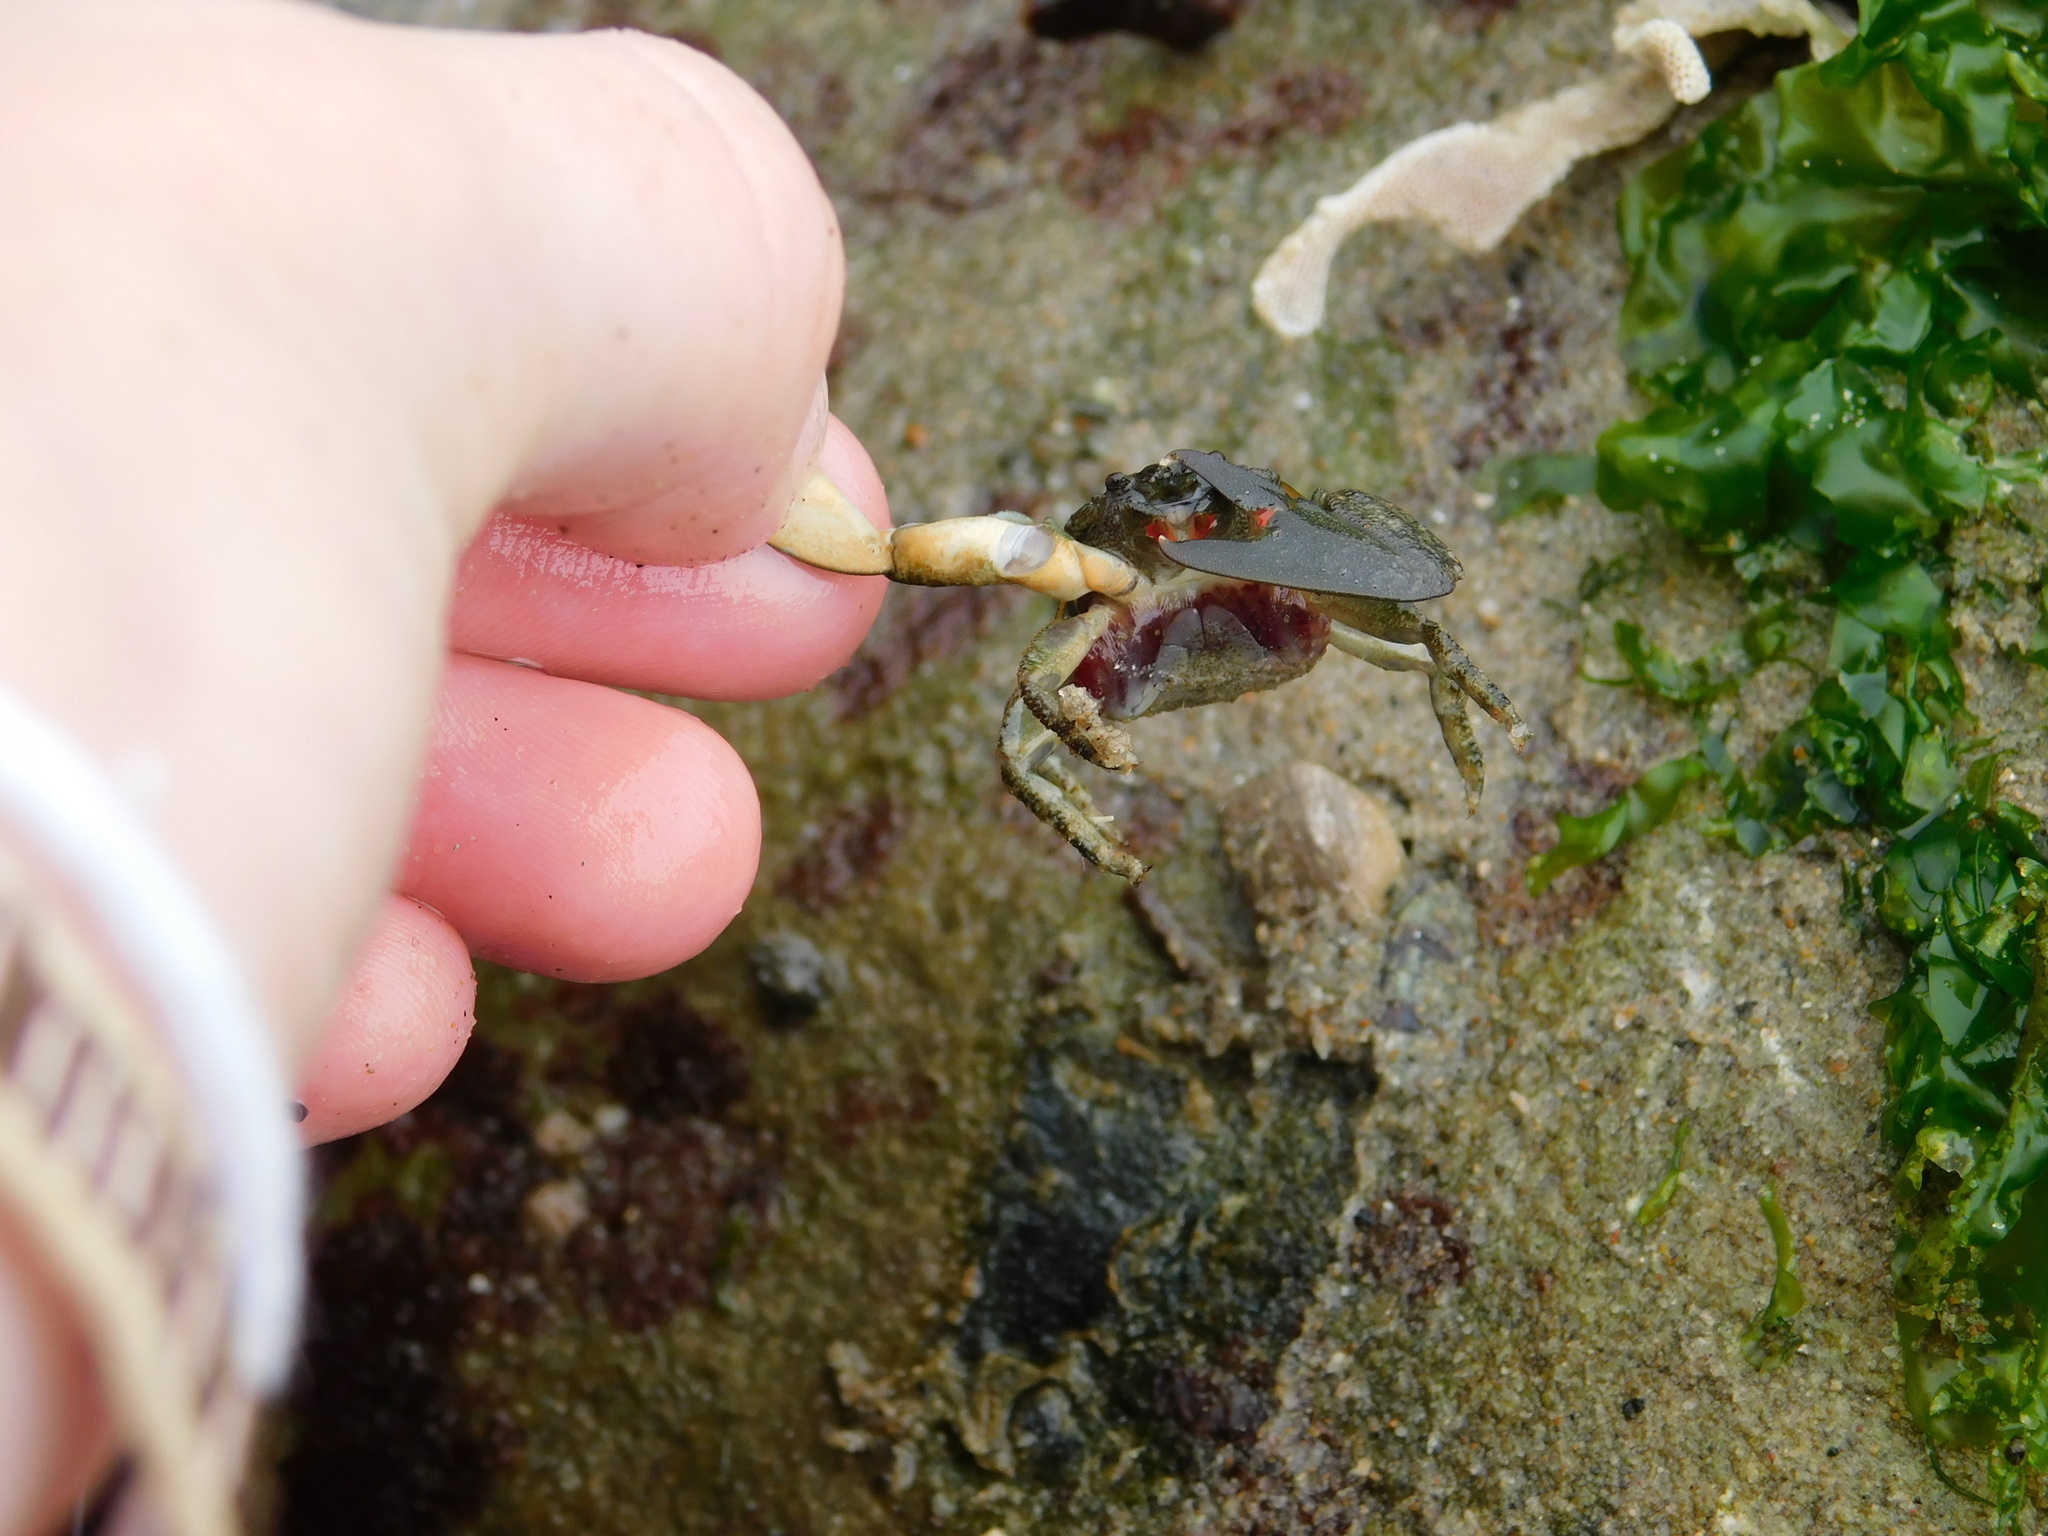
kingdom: Animalia
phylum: Arthropoda
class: Malacostraca
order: Decapoda
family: Porcellanidae
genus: Petrolisthes
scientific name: Petrolisthes cabrilloi
